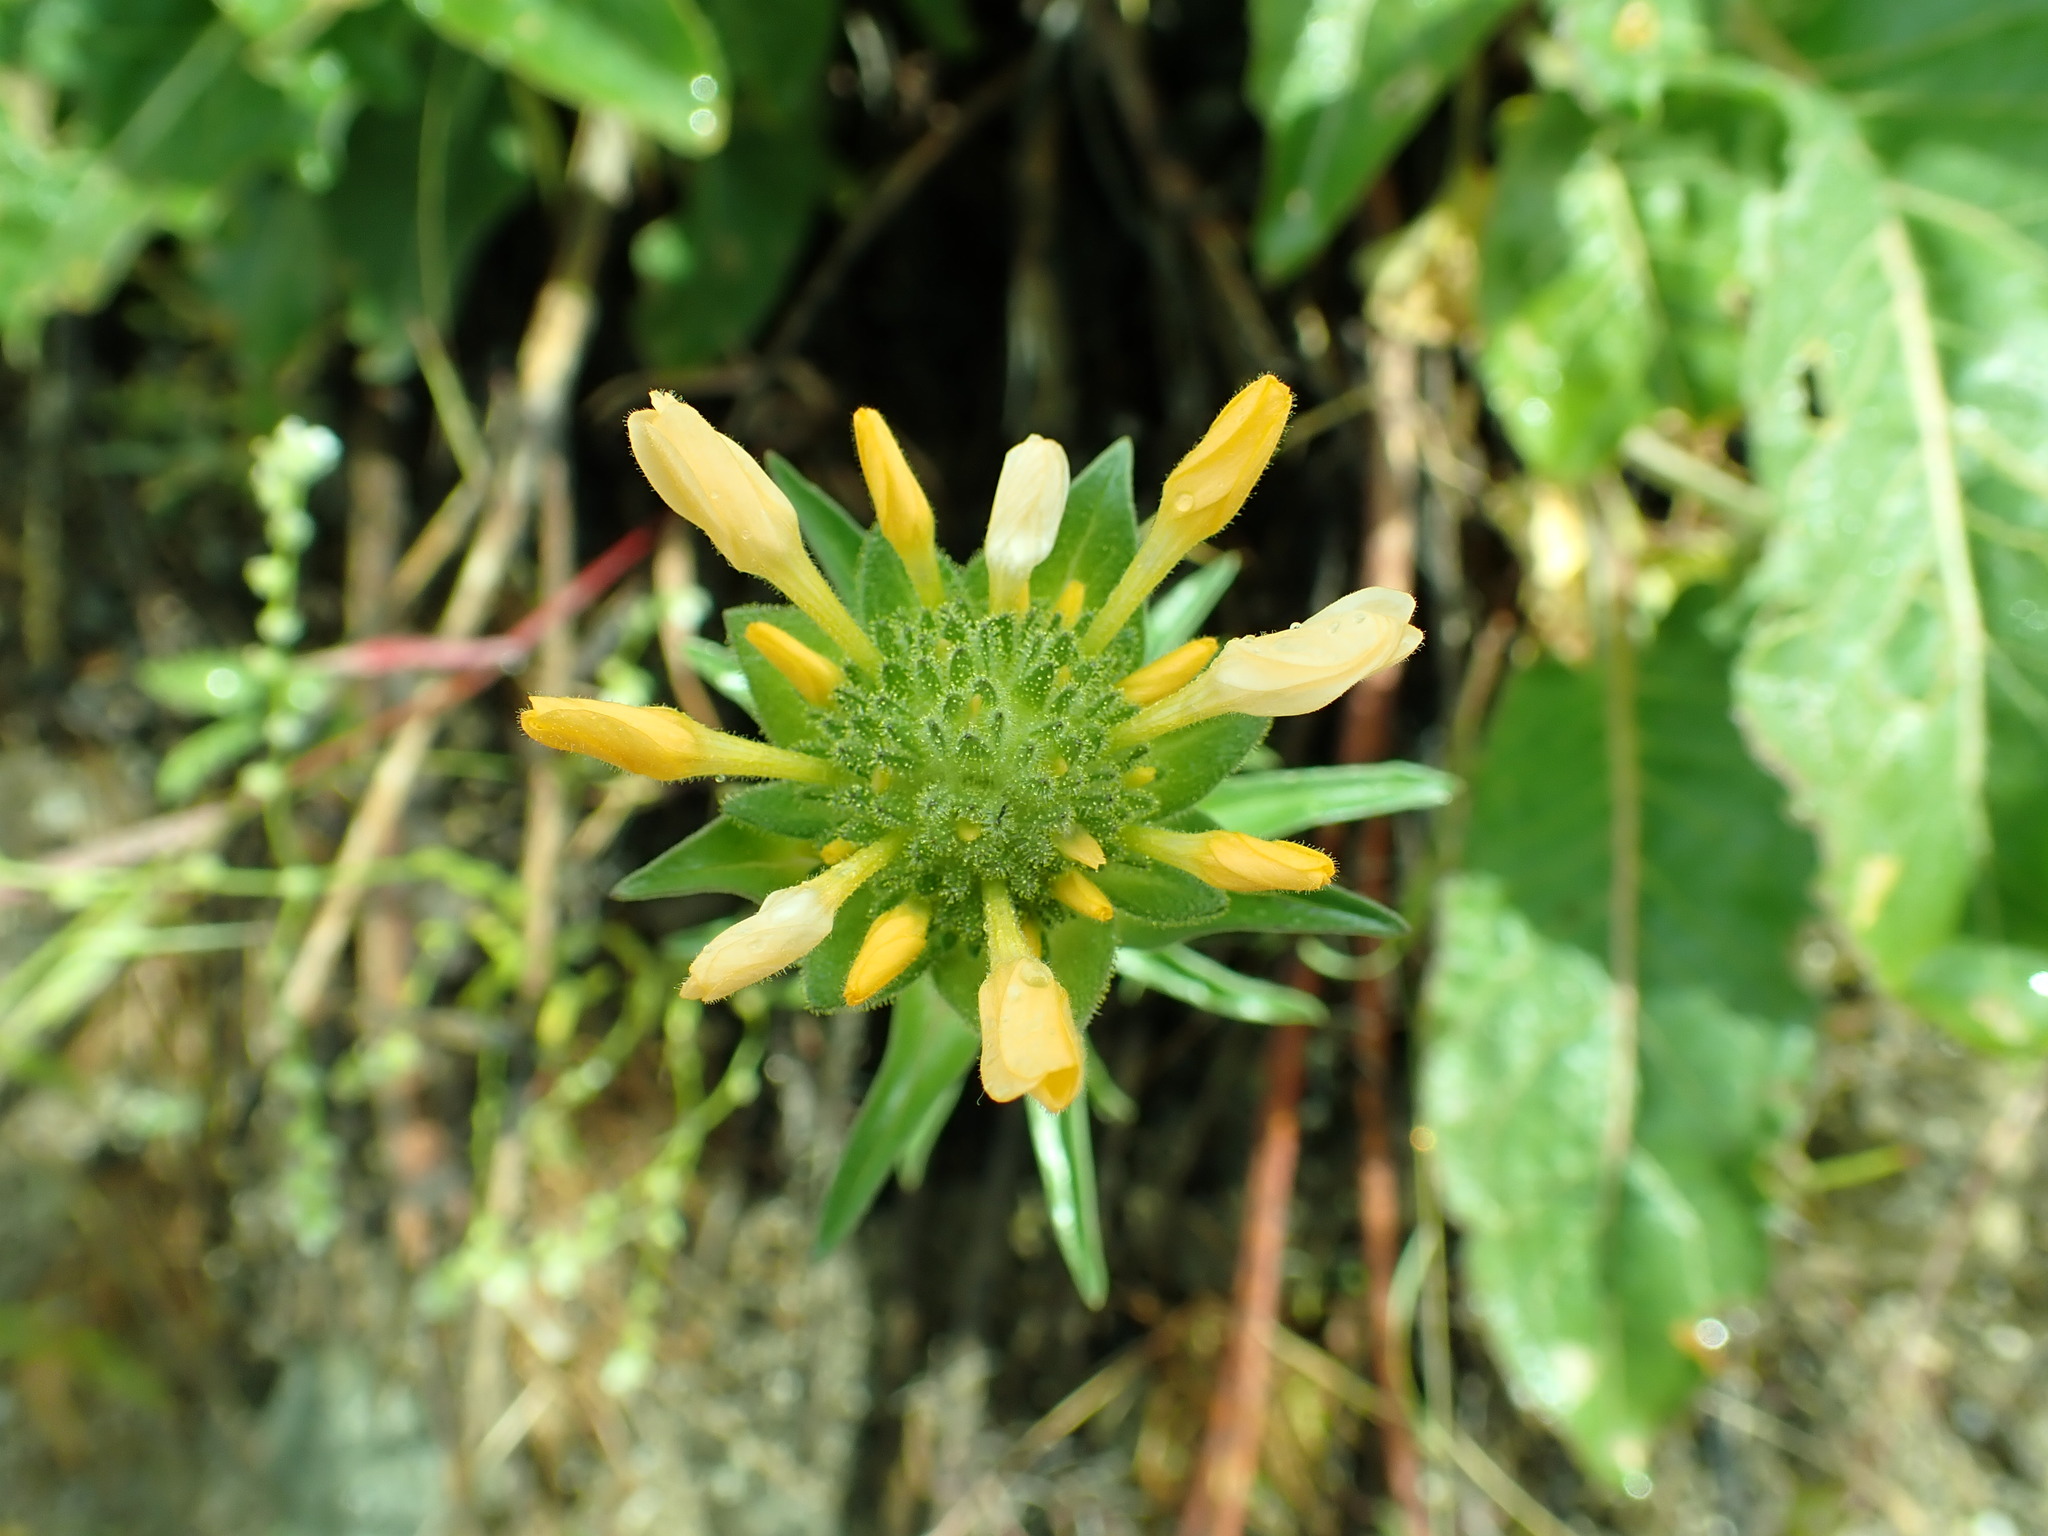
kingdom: Plantae
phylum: Tracheophyta
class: Magnoliopsida
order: Ericales
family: Polemoniaceae
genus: Collomia
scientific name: Collomia grandiflora
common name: California strawflower
